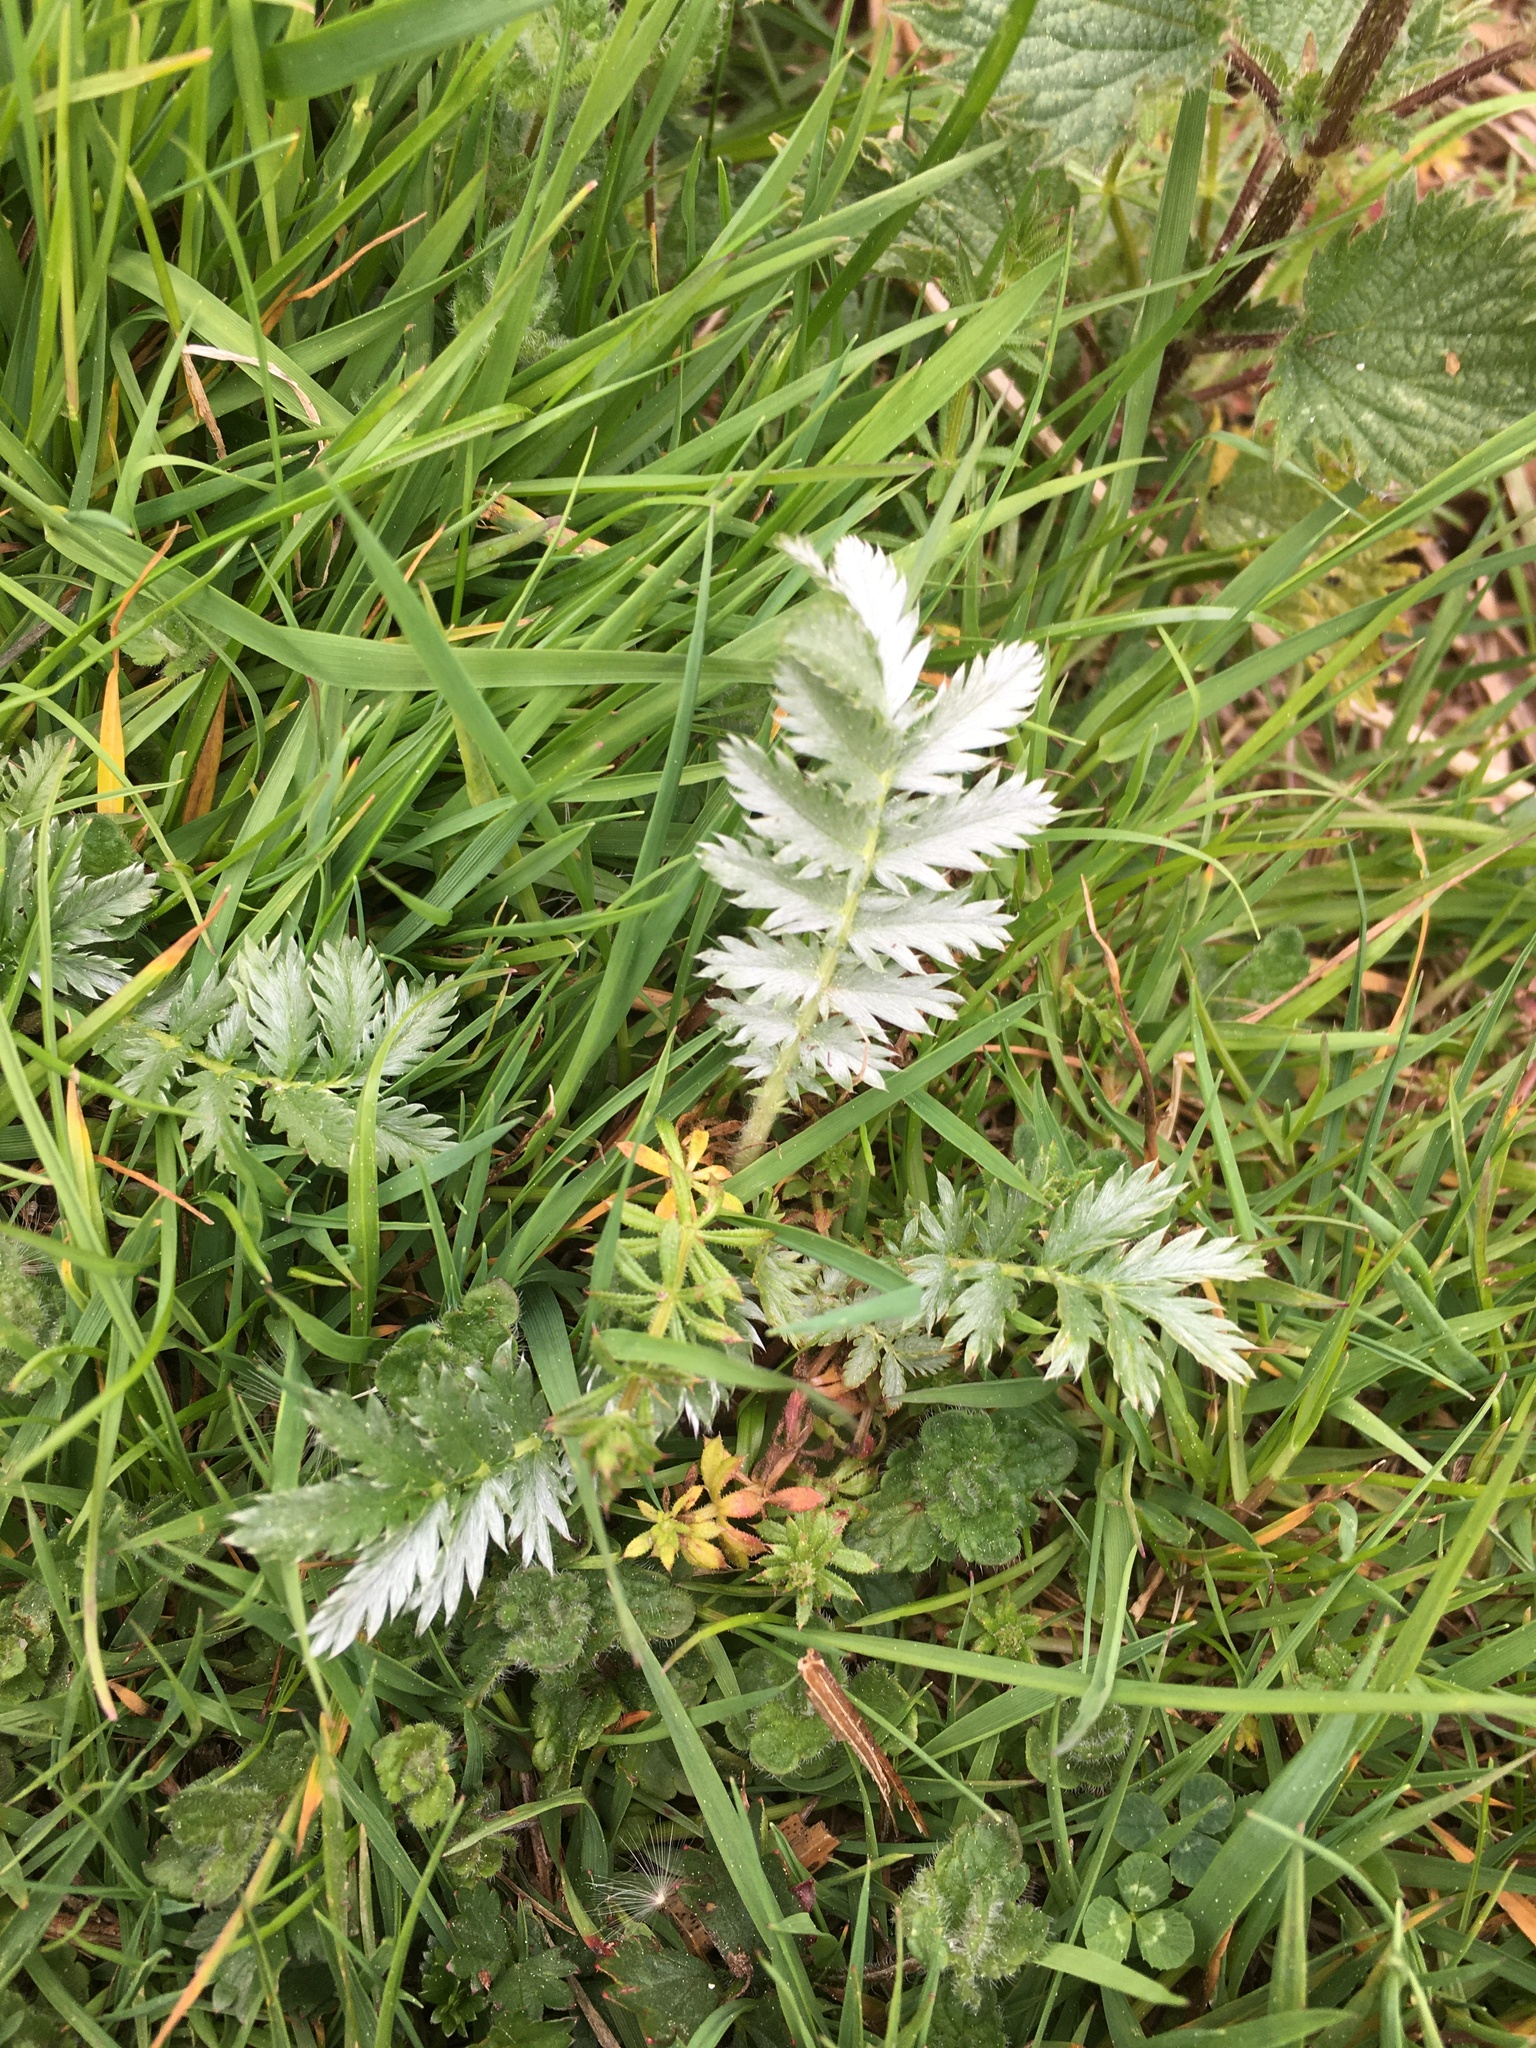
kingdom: Plantae
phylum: Tracheophyta
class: Magnoliopsida
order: Rosales
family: Rosaceae
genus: Argentina
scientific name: Argentina anserina
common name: Common silverweed
